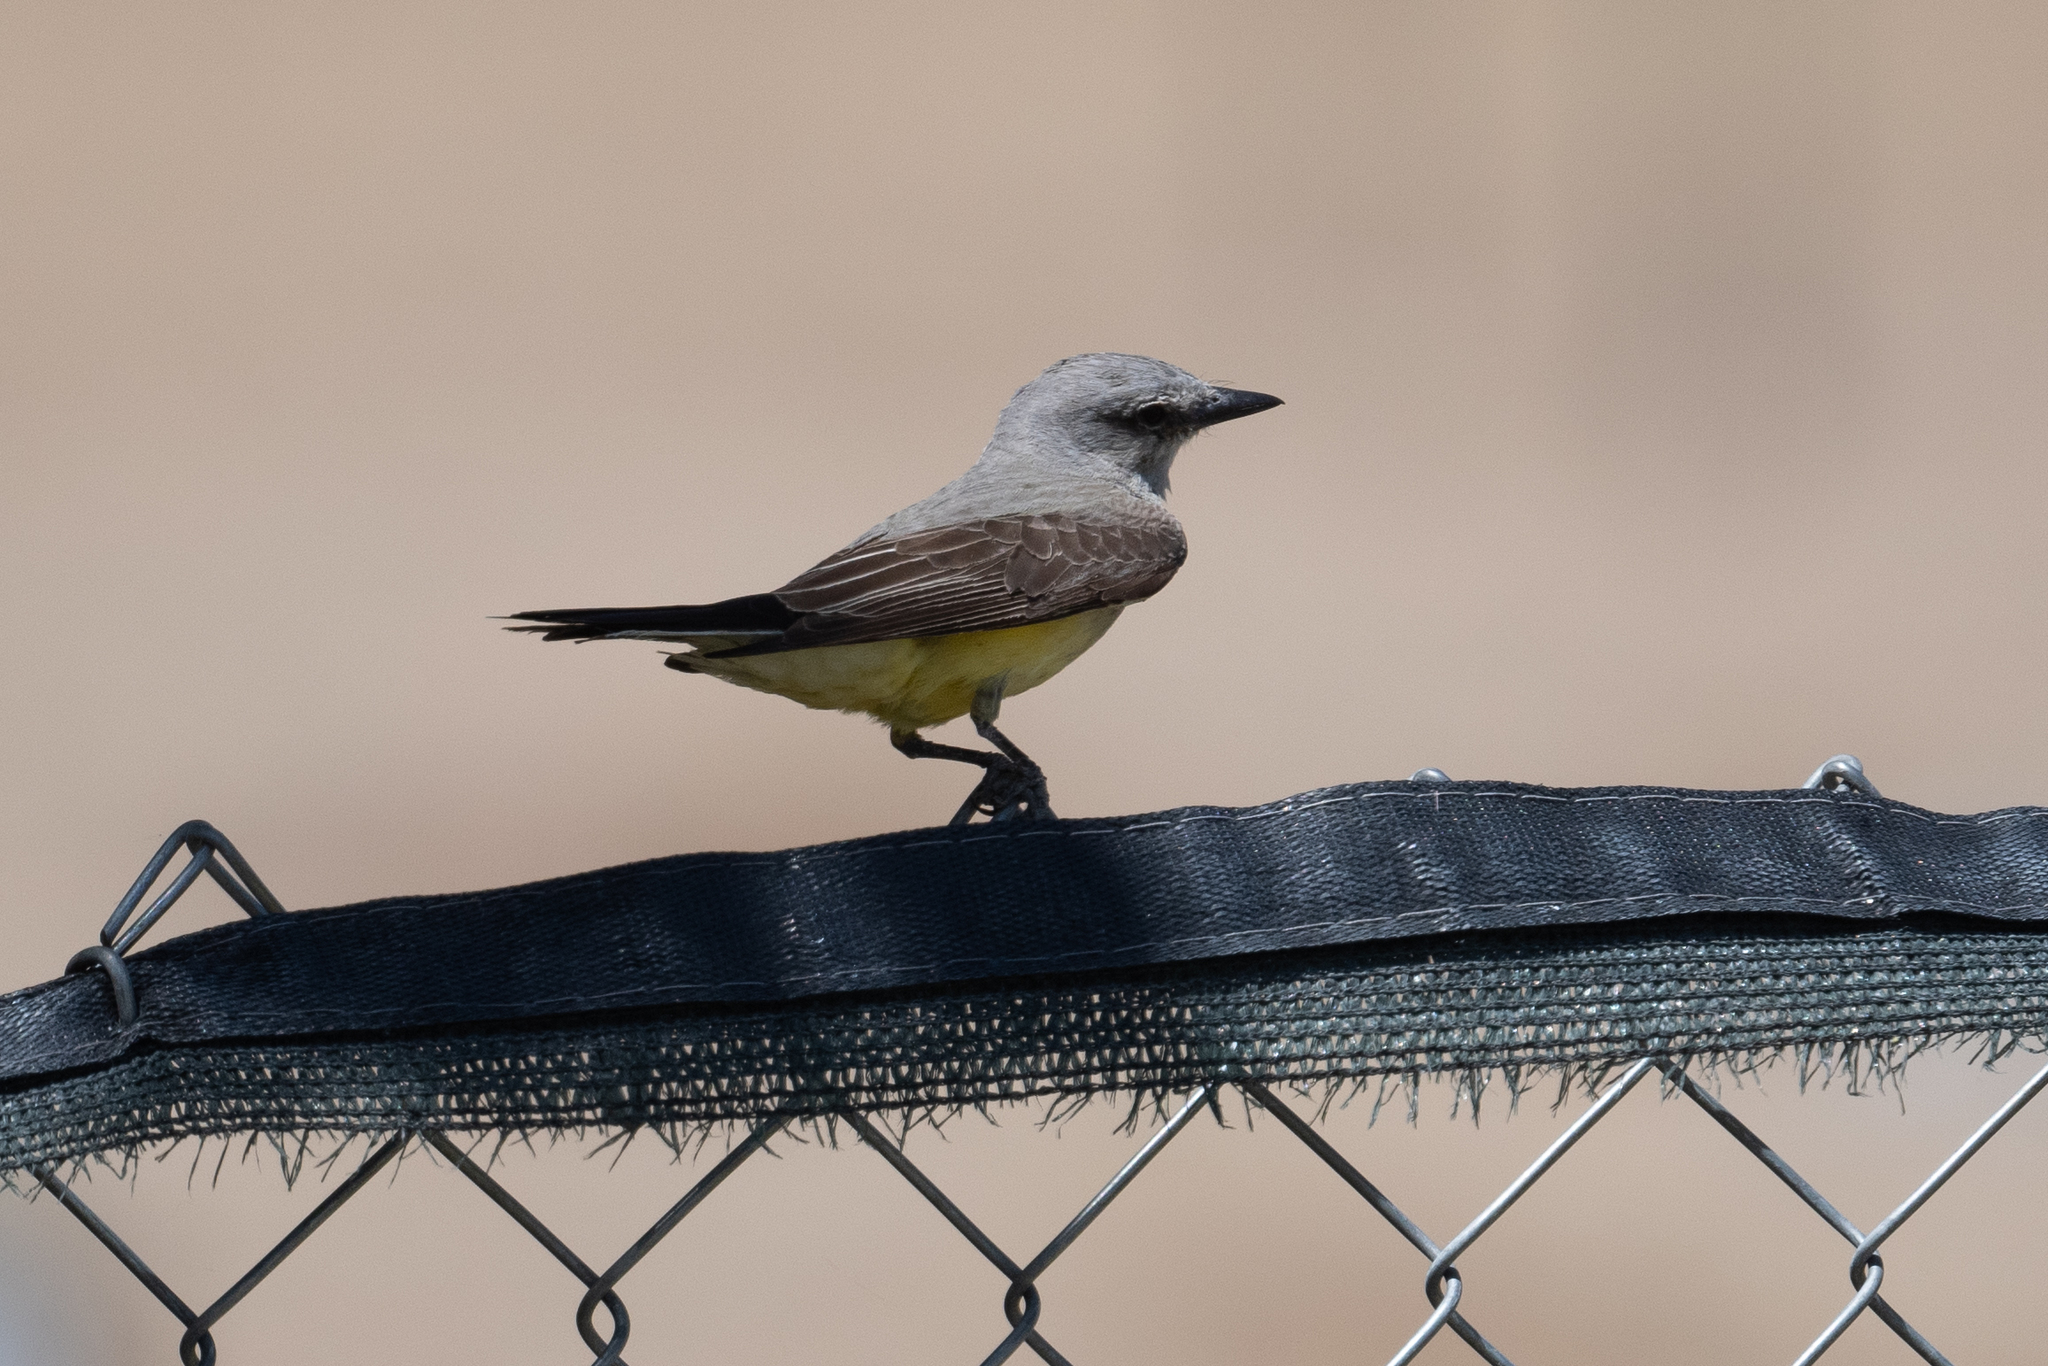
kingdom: Animalia
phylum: Chordata
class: Aves
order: Passeriformes
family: Tyrannidae
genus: Tyrannus
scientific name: Tyrannus verticalis
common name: Western kingbird
